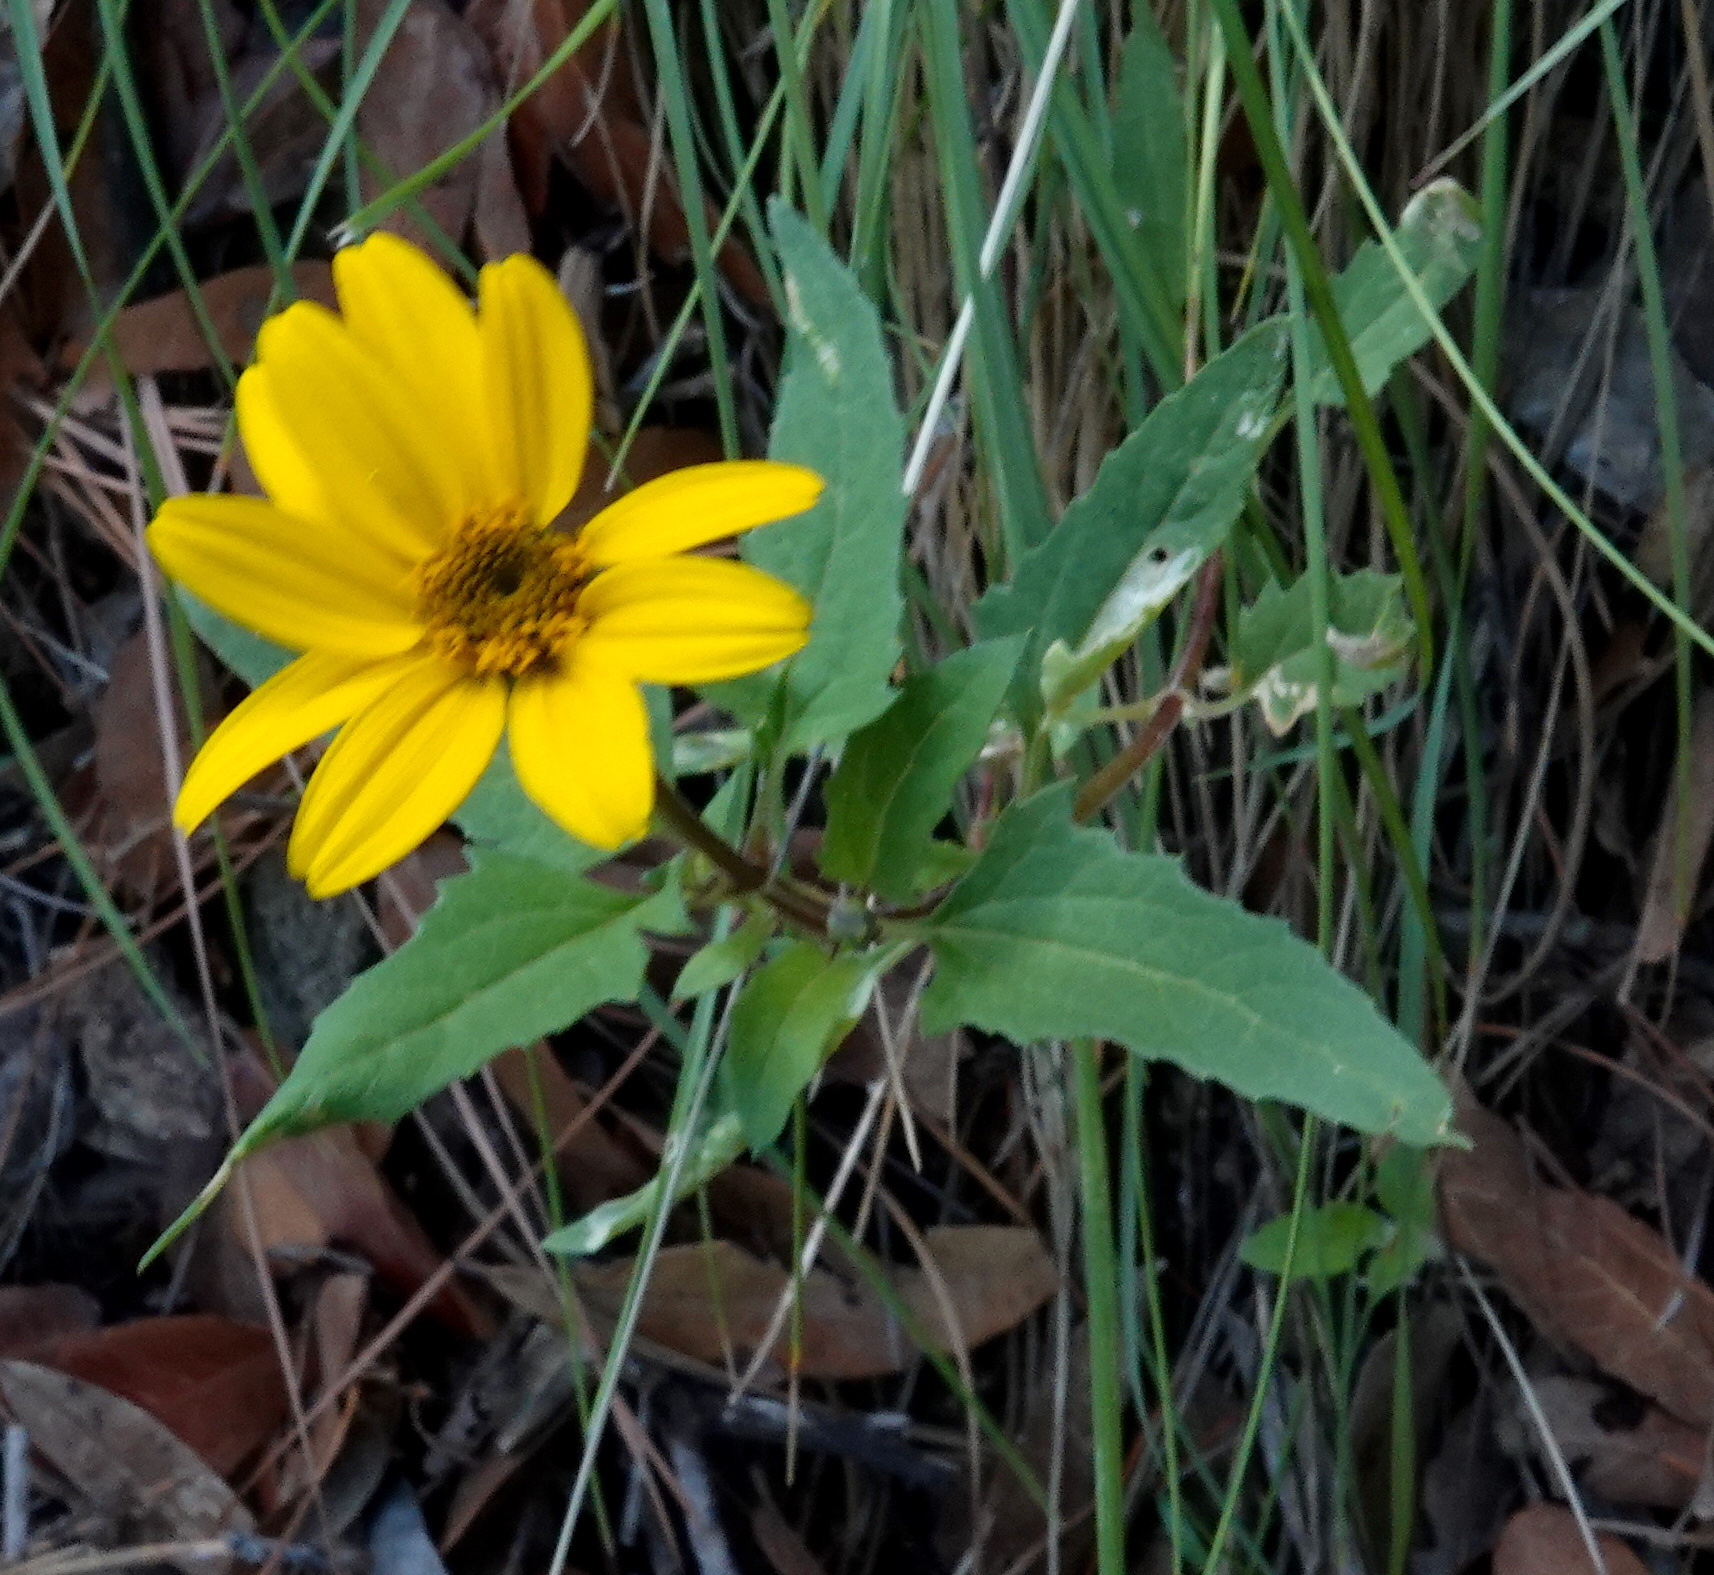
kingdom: Plantae
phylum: Tracheophyta
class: Magnoliopsida
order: Asterales
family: Asteraceae
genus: Heliopsis
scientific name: Heliopsis parvifolia
